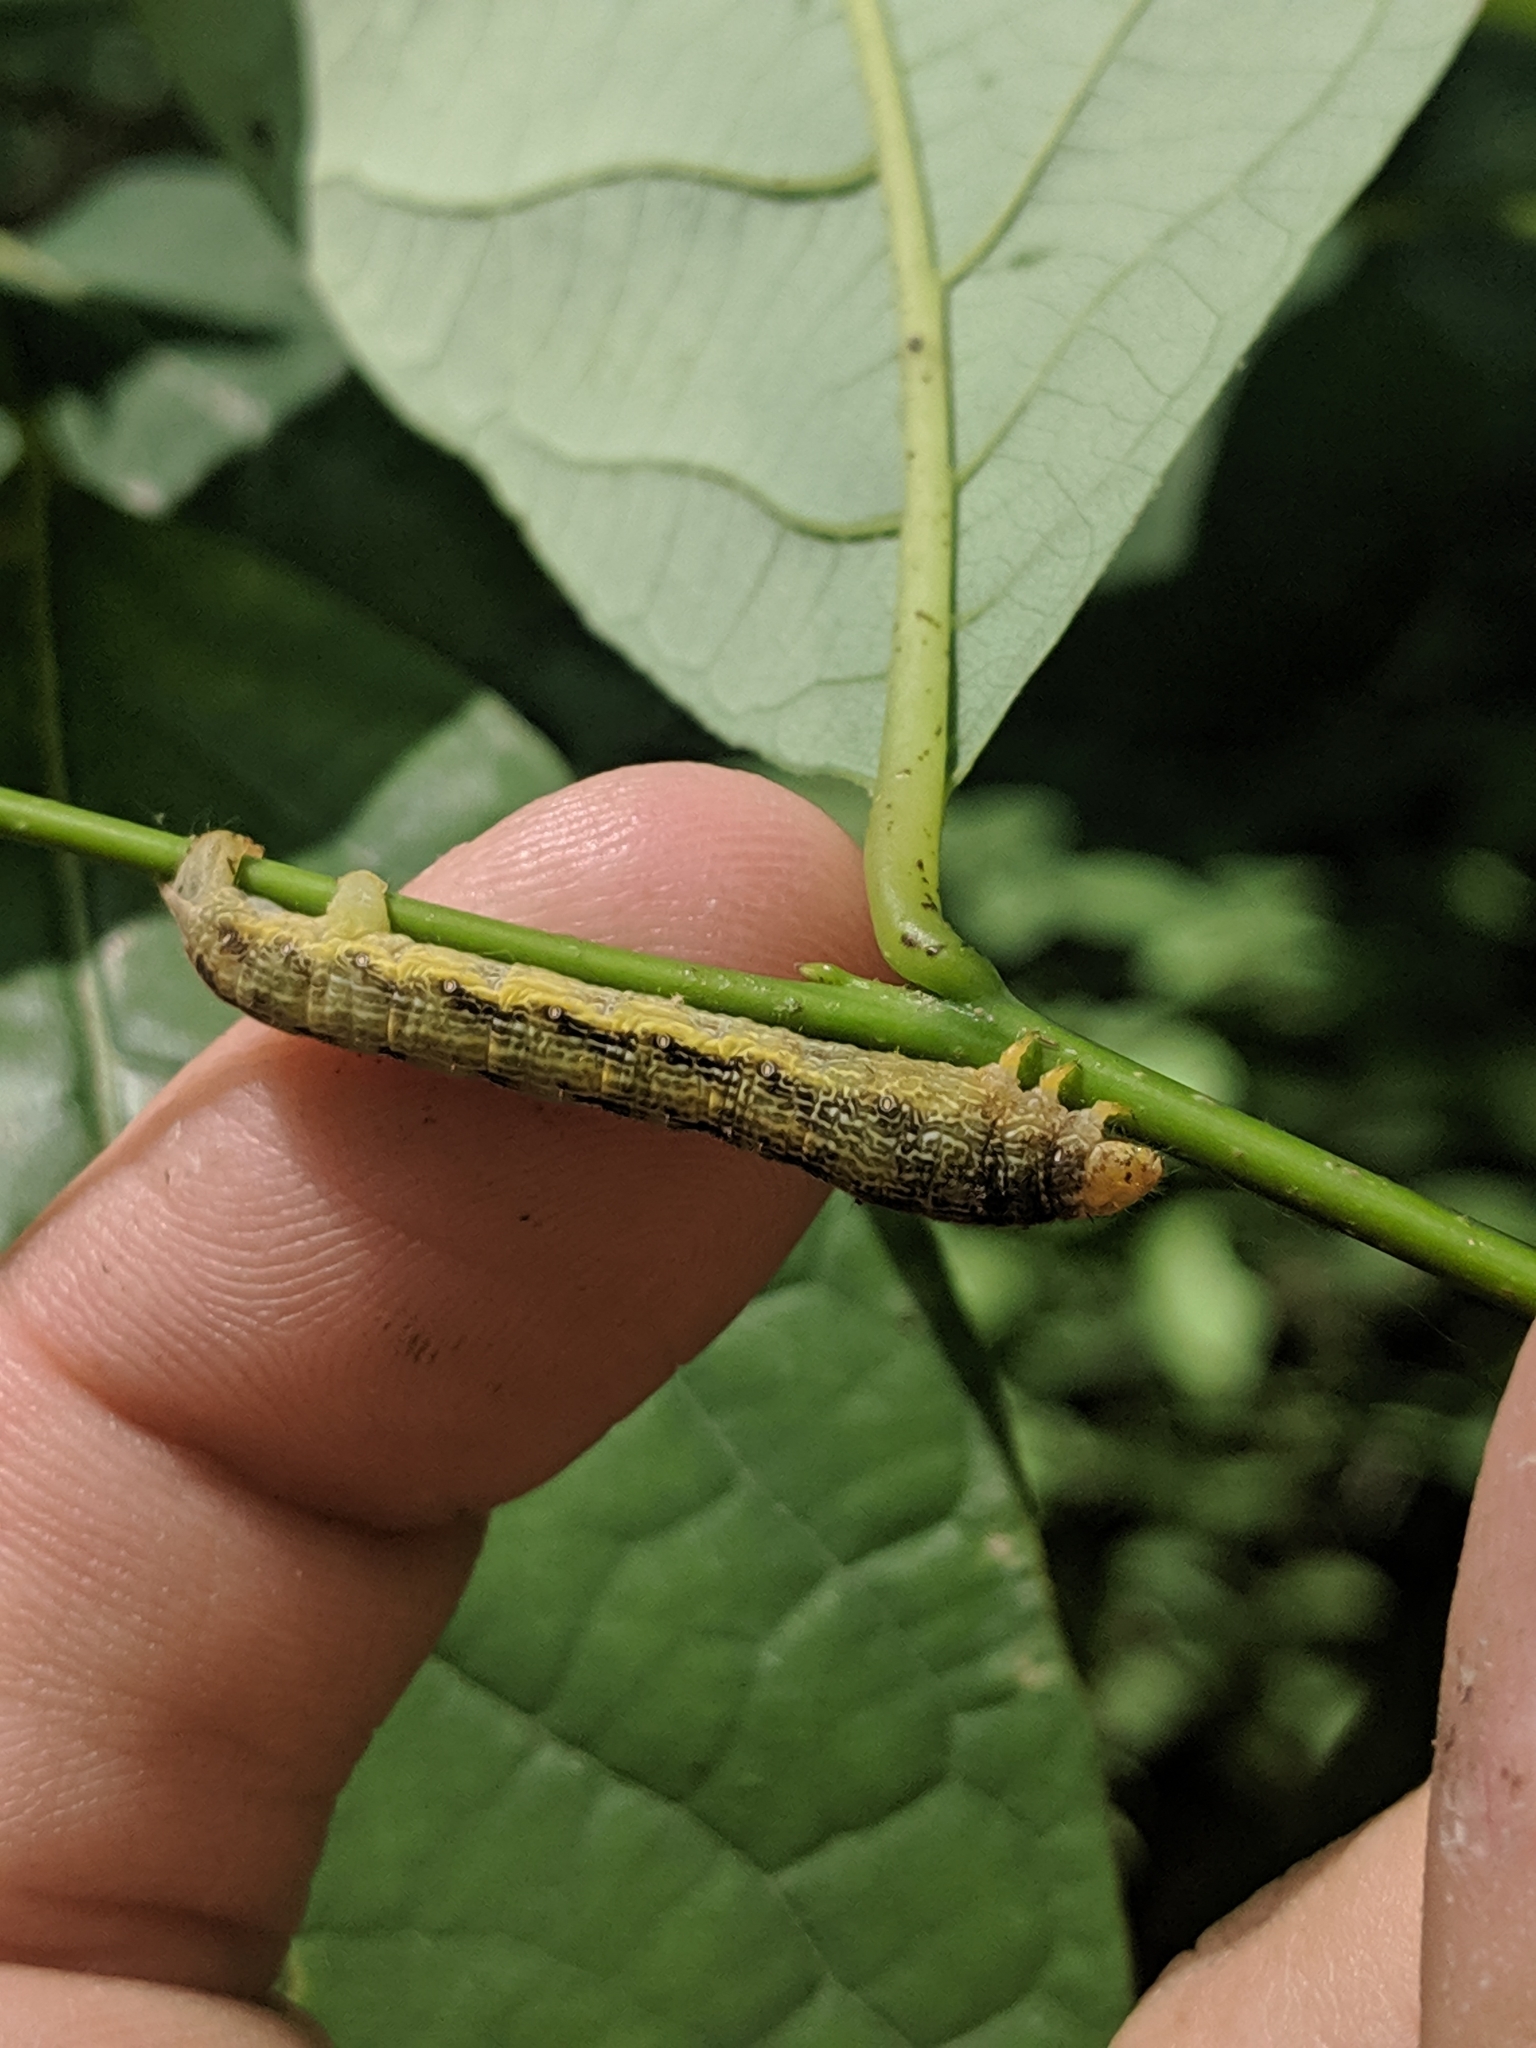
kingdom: Animalia
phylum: Arthropoda
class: Insecta
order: Lepidoptera
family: Geometridae
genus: Epimecis
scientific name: Epimecis hortaria
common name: Tulip-tree beauty
